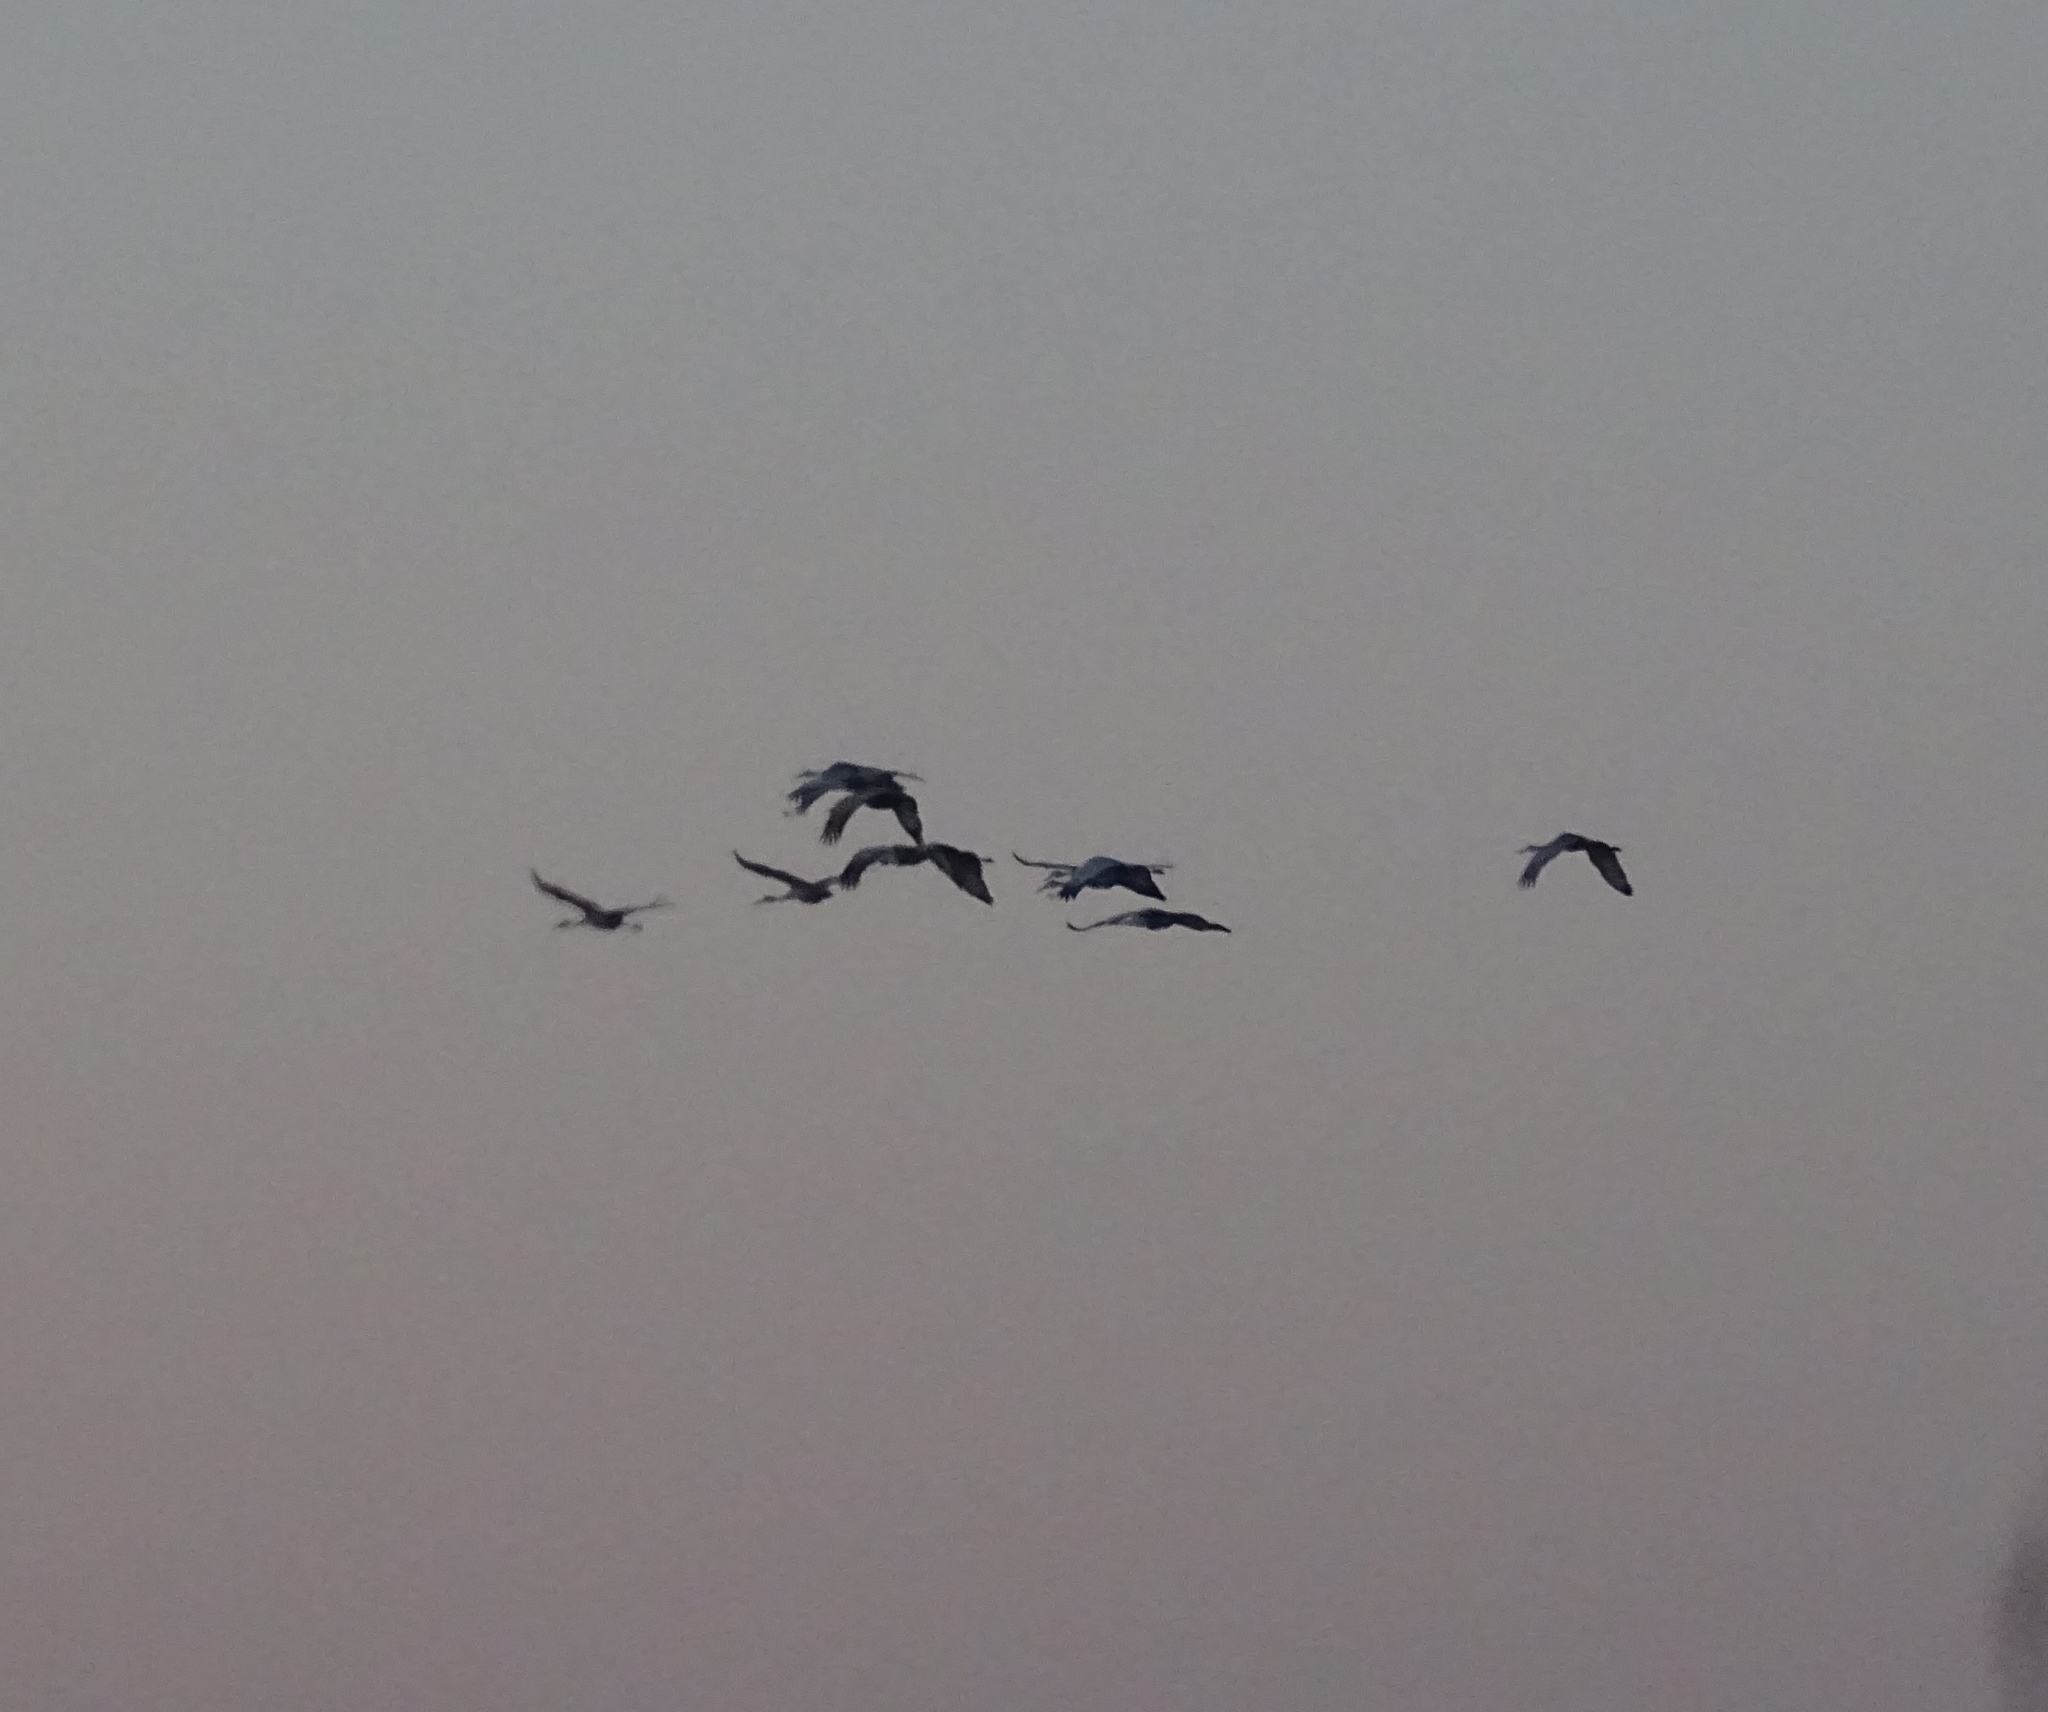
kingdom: Animalia
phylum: Chordata
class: Aves
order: Gruiformes
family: Gruidae
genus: Grus
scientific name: Grus canadensis
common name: Sandhill crane
